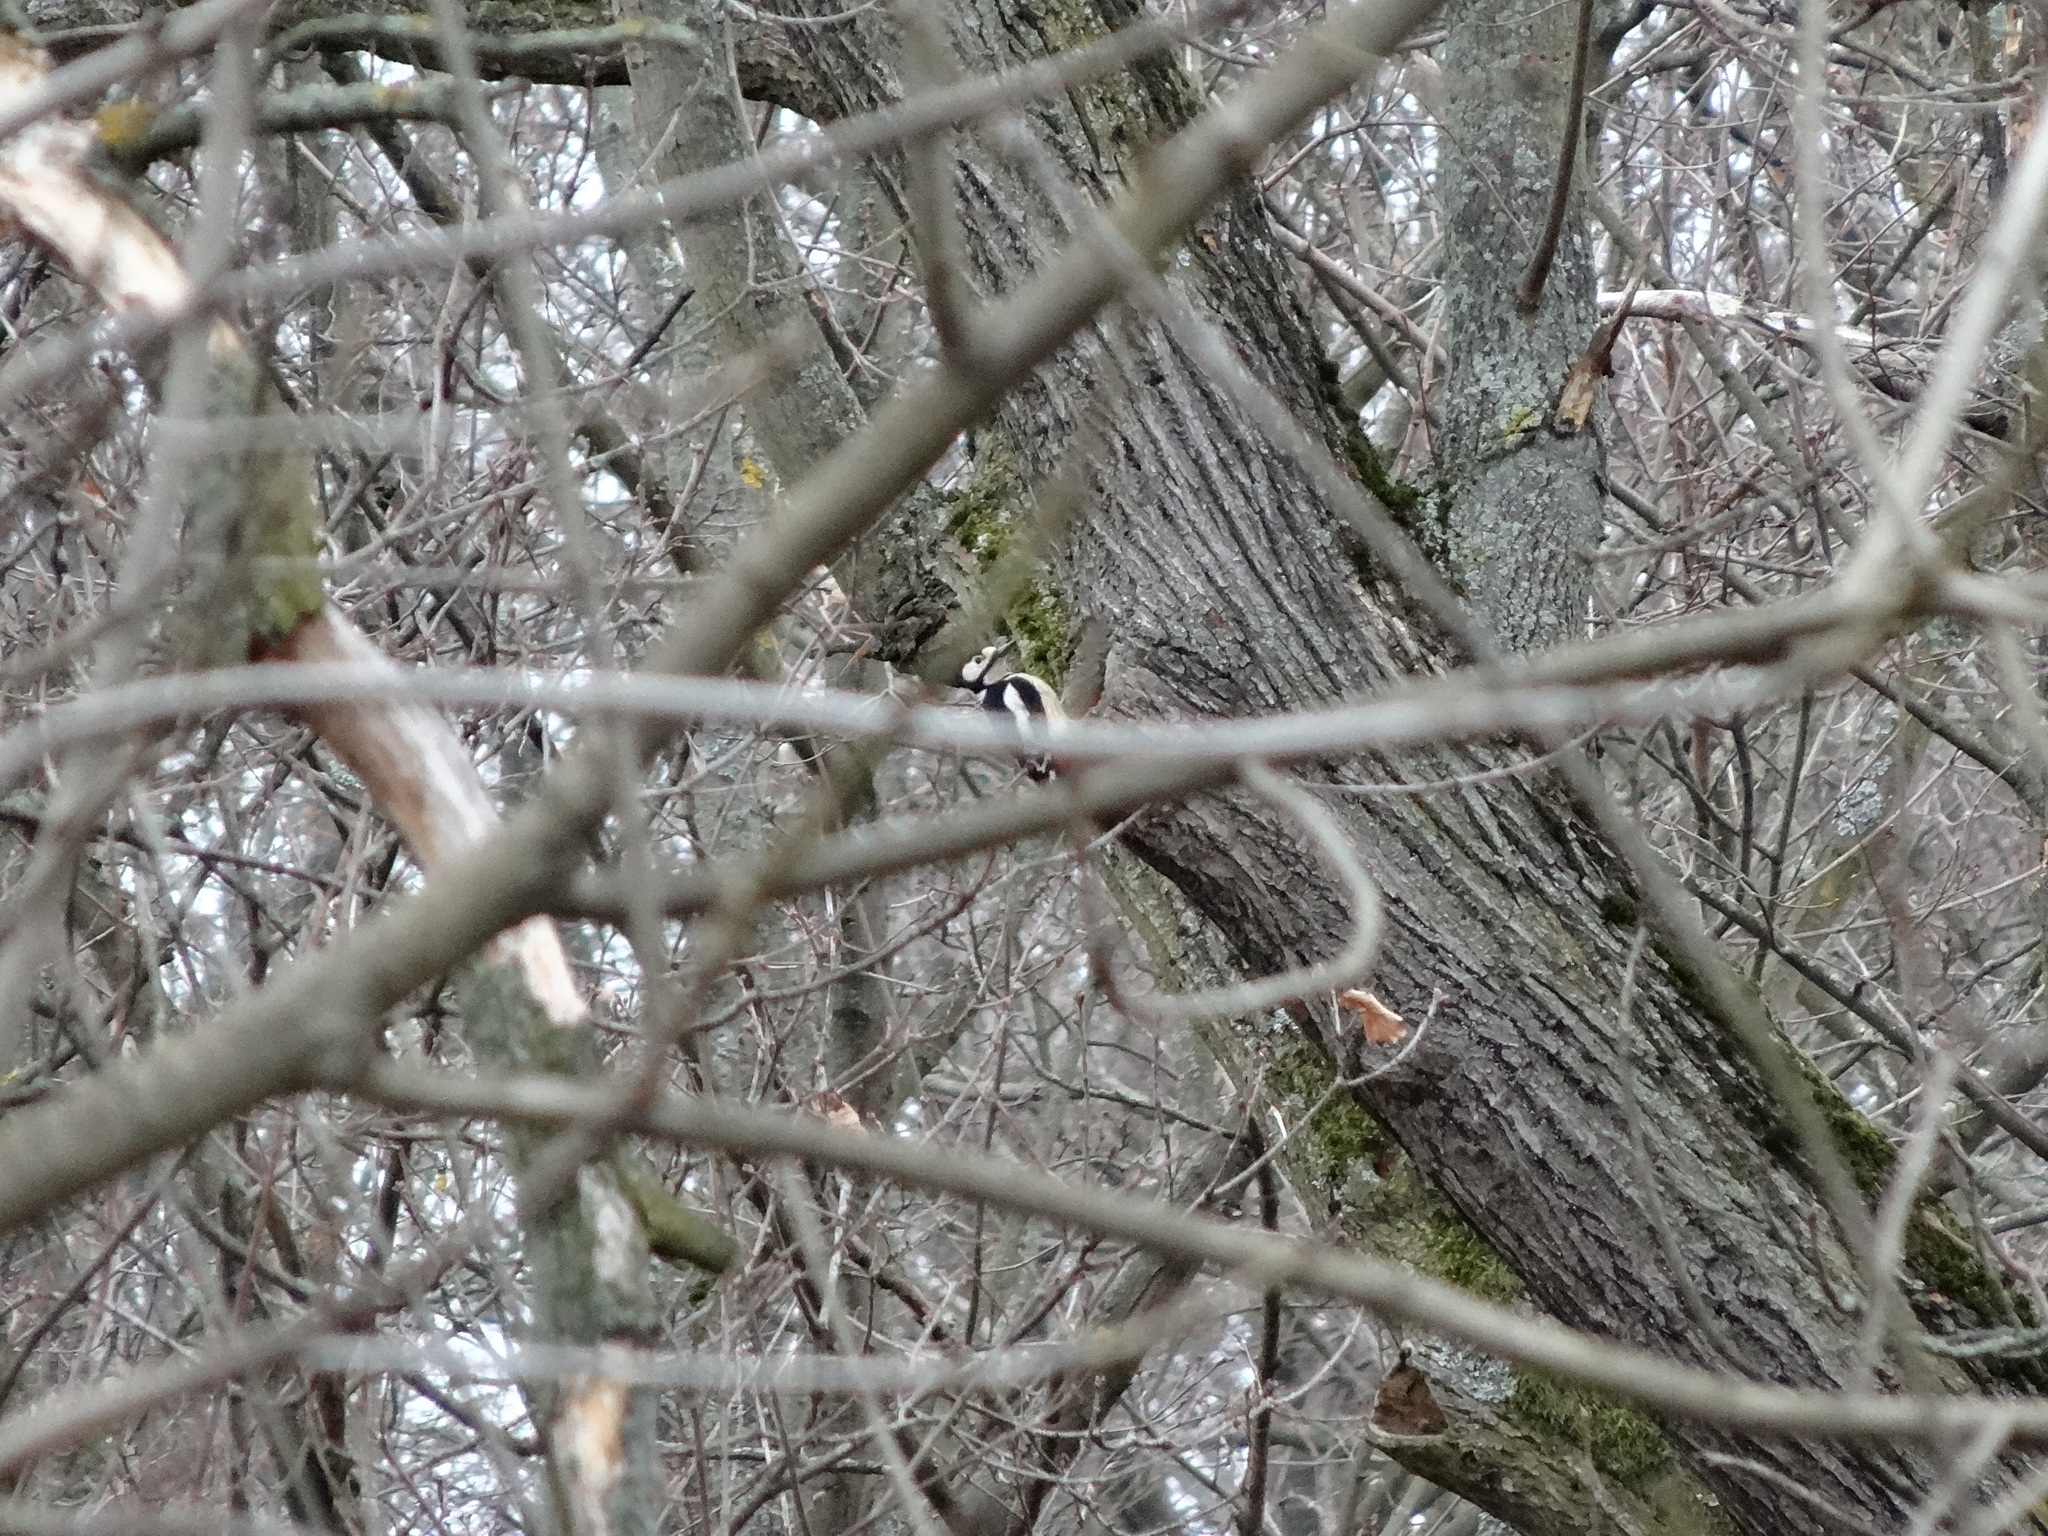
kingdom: Animalia
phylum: Chordata
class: Aves
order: Piciformes
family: Picidae
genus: Dendrocopos
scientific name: Dendrocopos major
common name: Great spotted woodpecker
